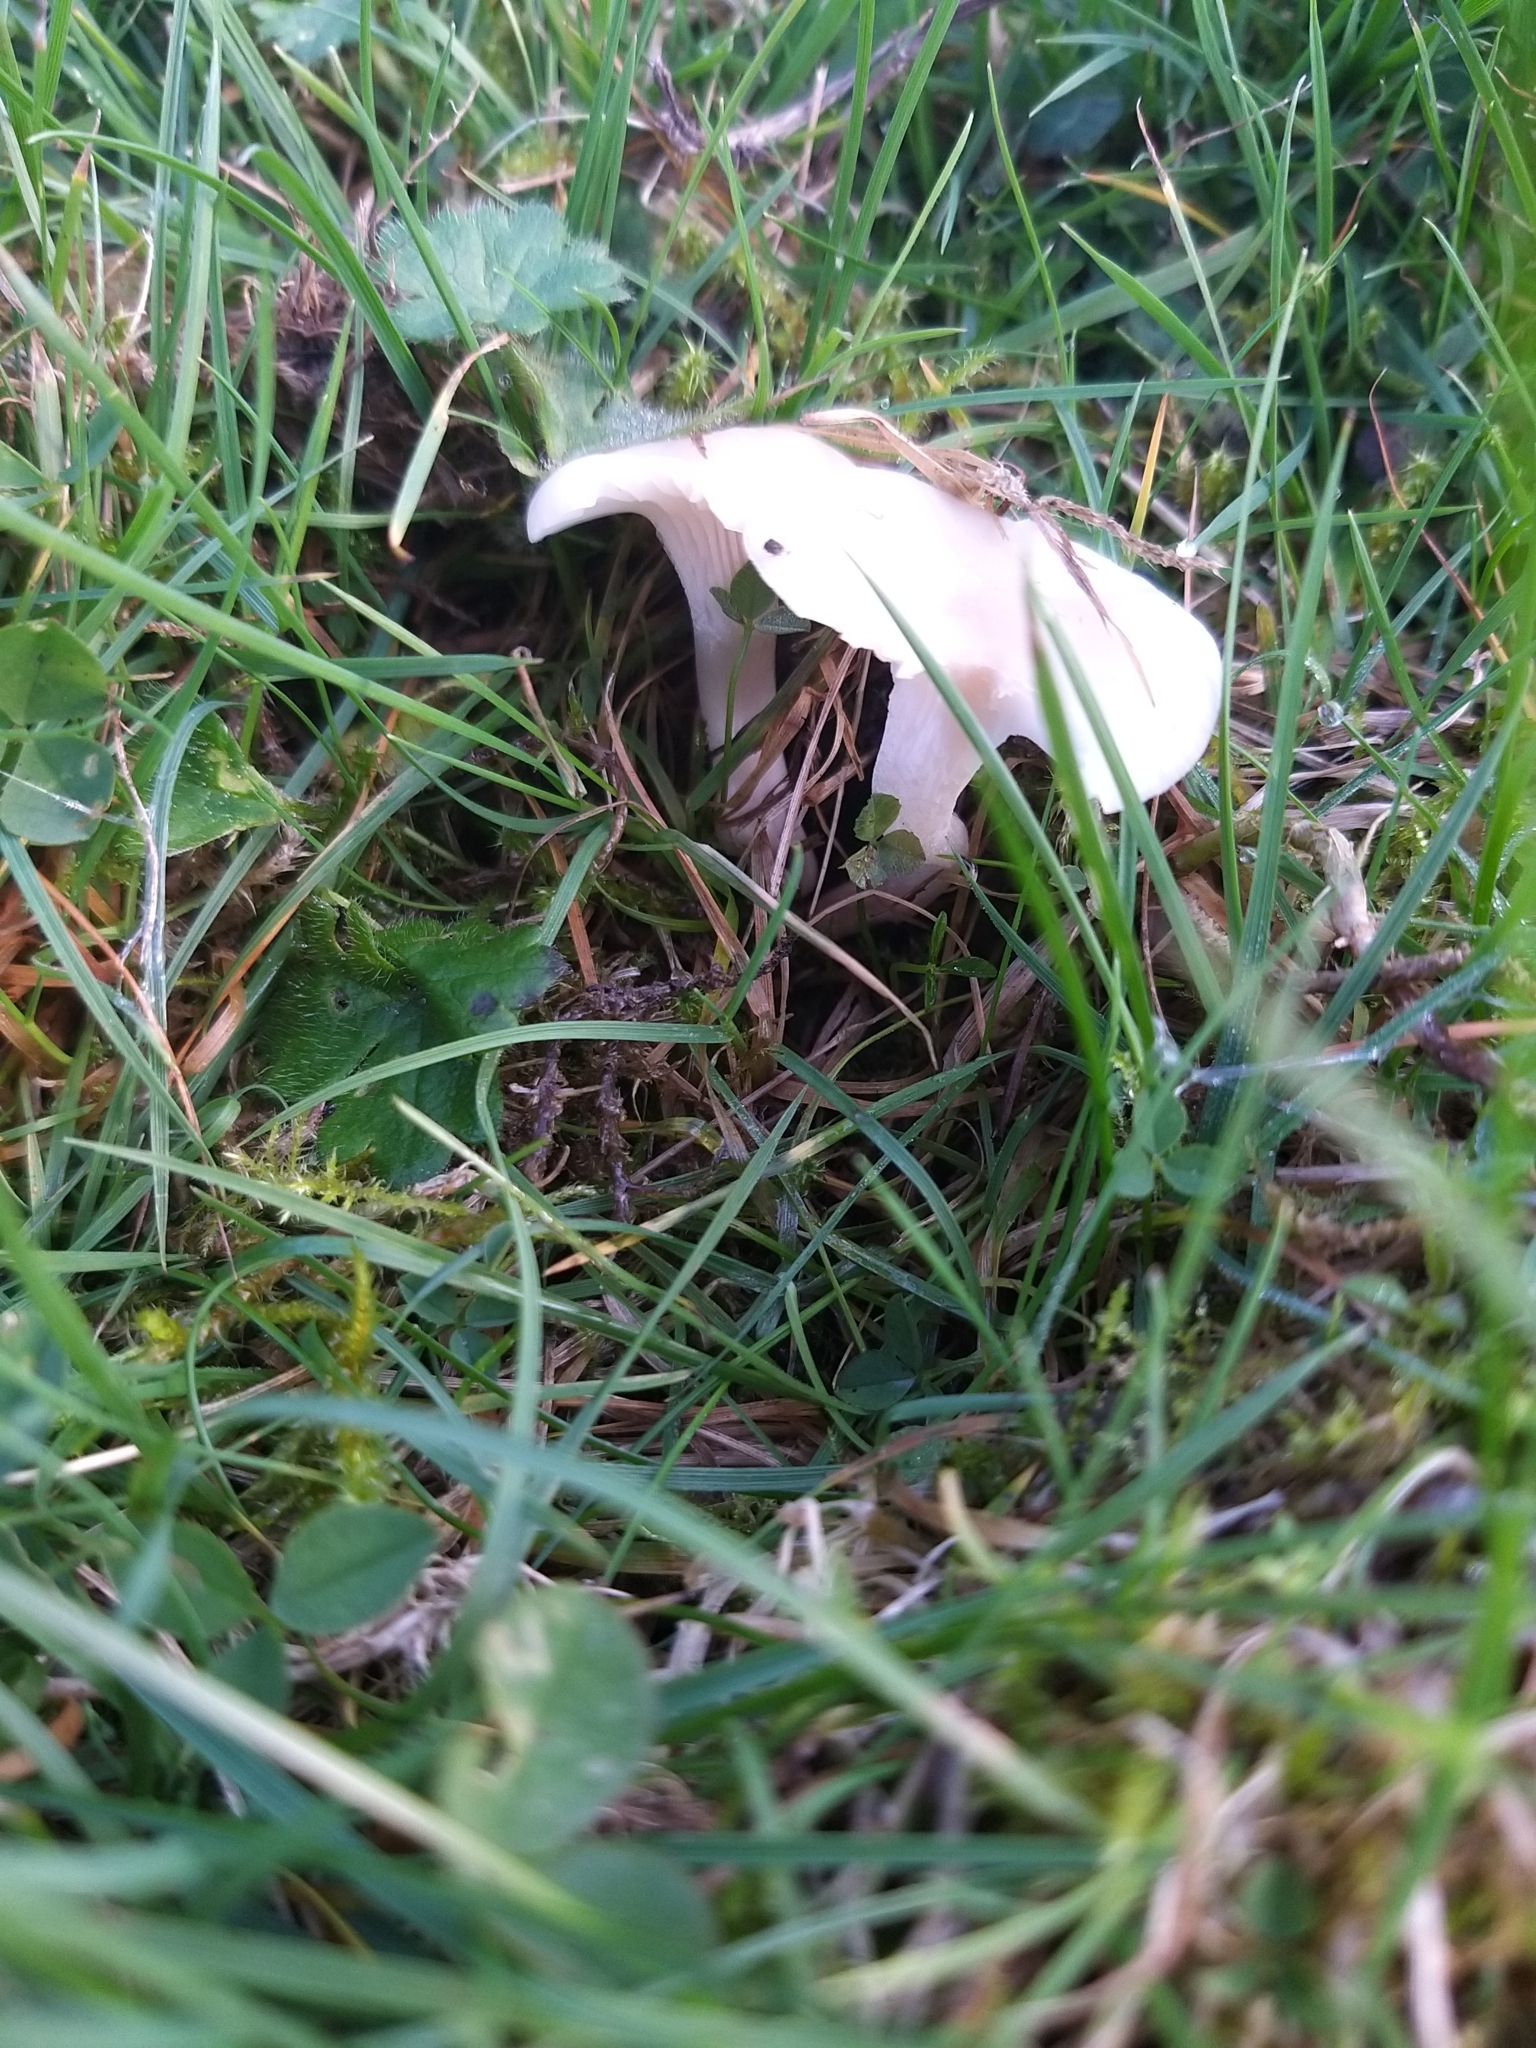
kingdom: Fungi
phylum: Basidiomycota
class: Agaricomycetes
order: Agaricales
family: Hygrophoraceae
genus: Cuphophyllus
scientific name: Cuphophyllus virgineus
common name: Snowy waxcap
